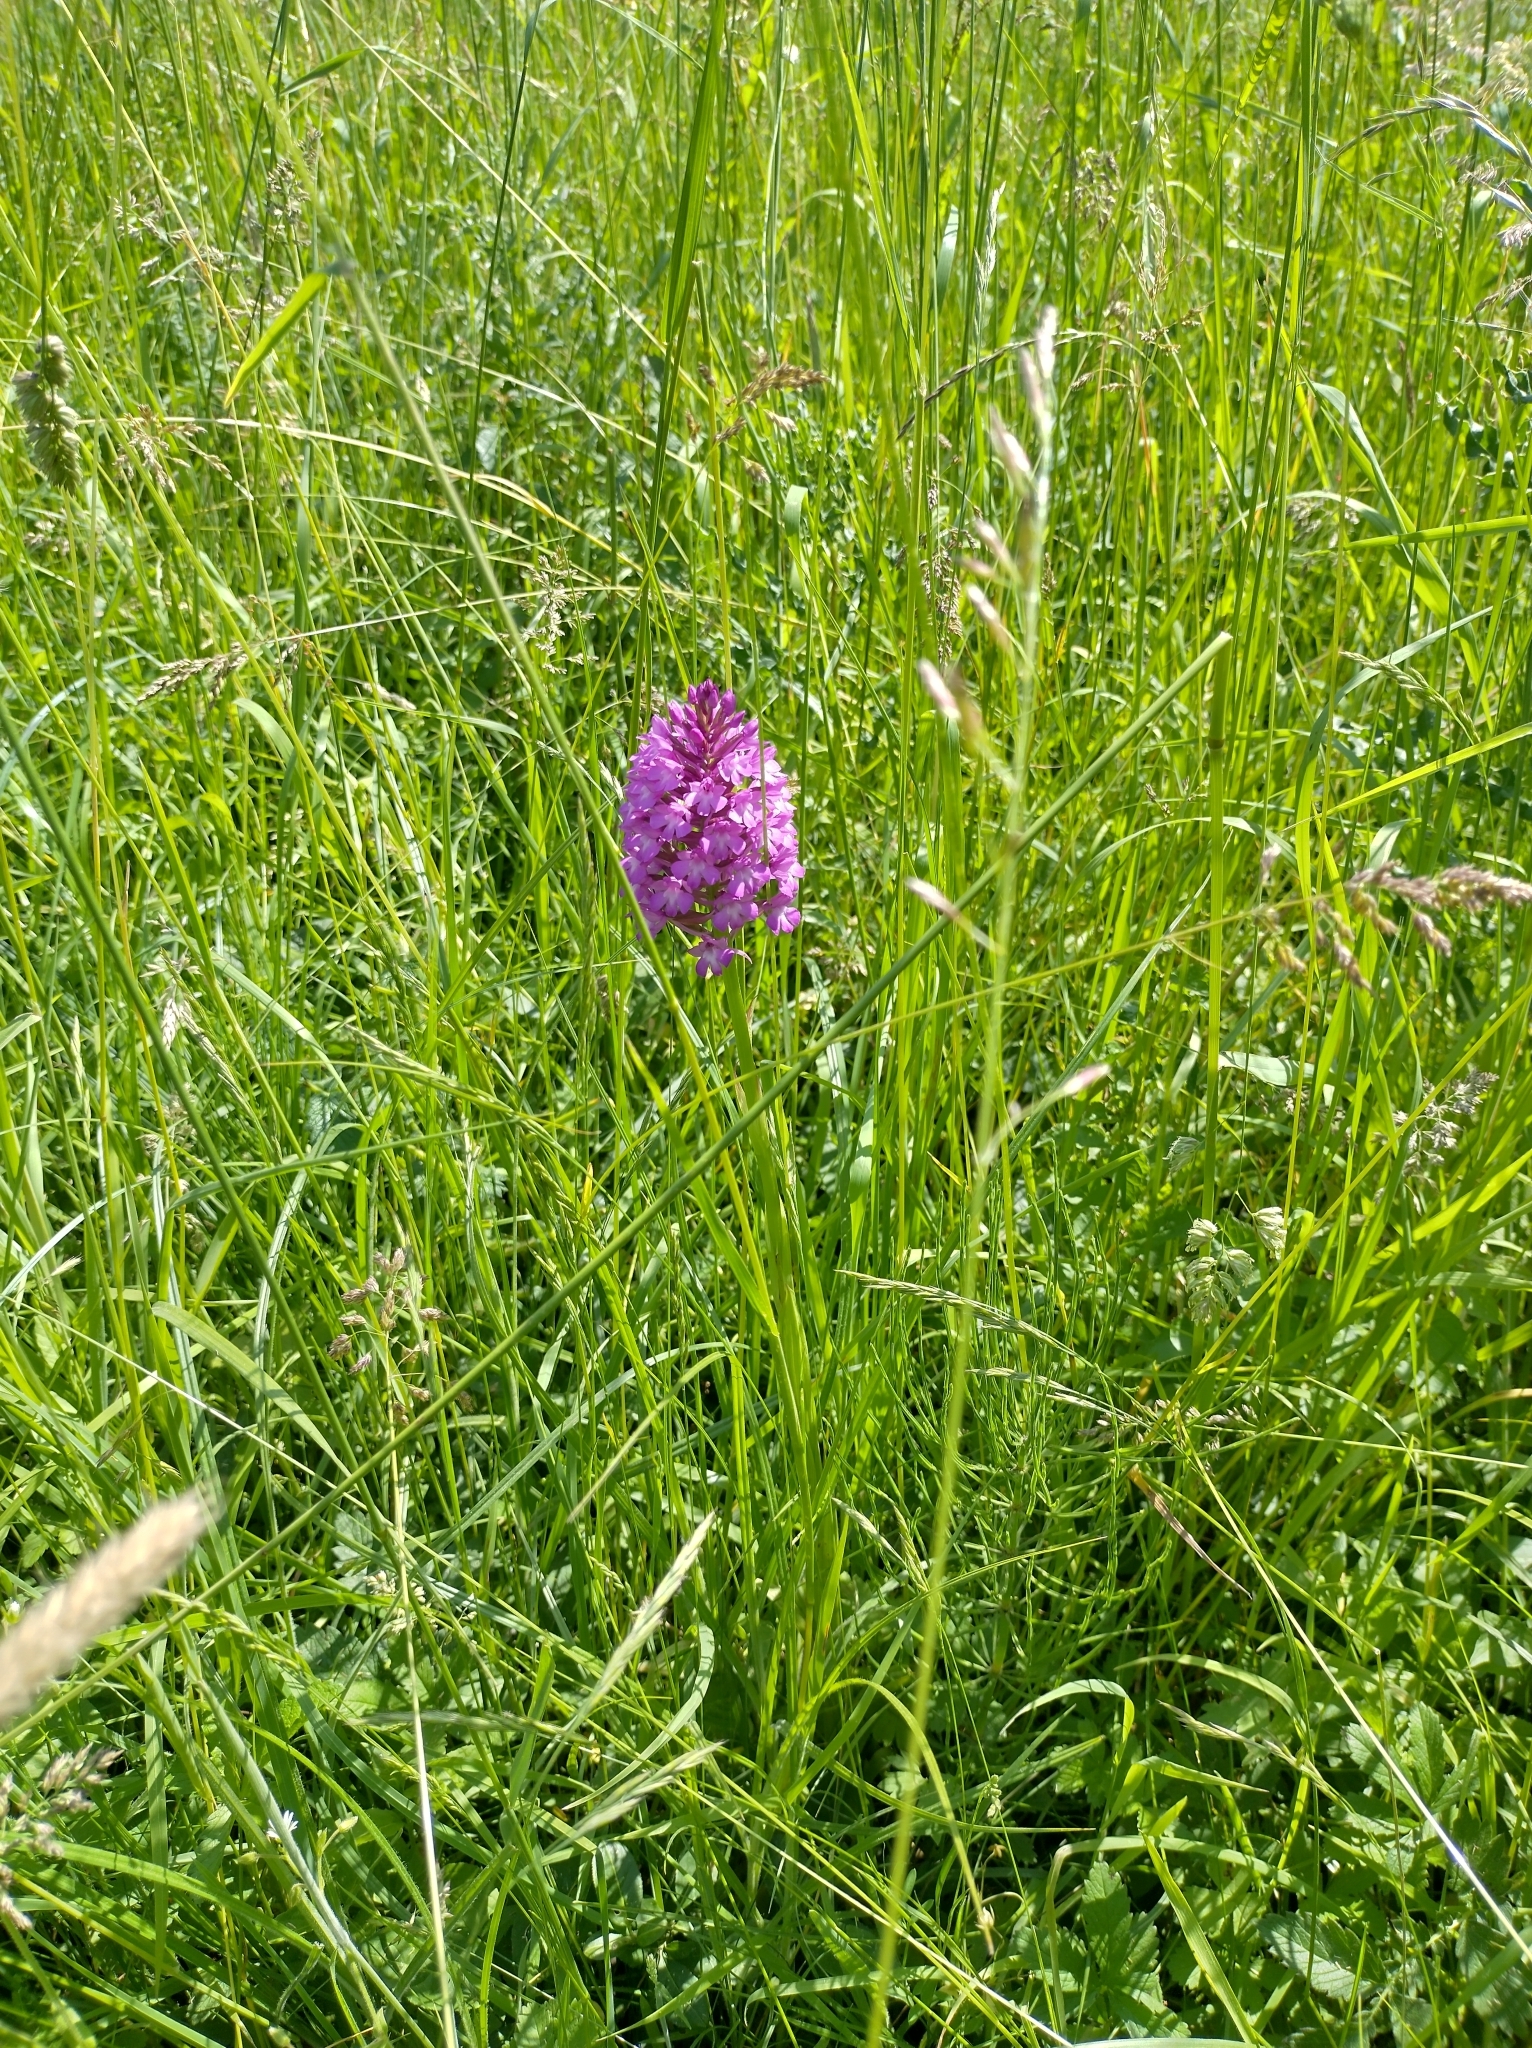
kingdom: Plantae
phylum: Tracheophyta
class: Liliopsida
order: Asparagales
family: Orchidaceae
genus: Anacamptis
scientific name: Anacamptis pyramidalis
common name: Pyramidal orchid
